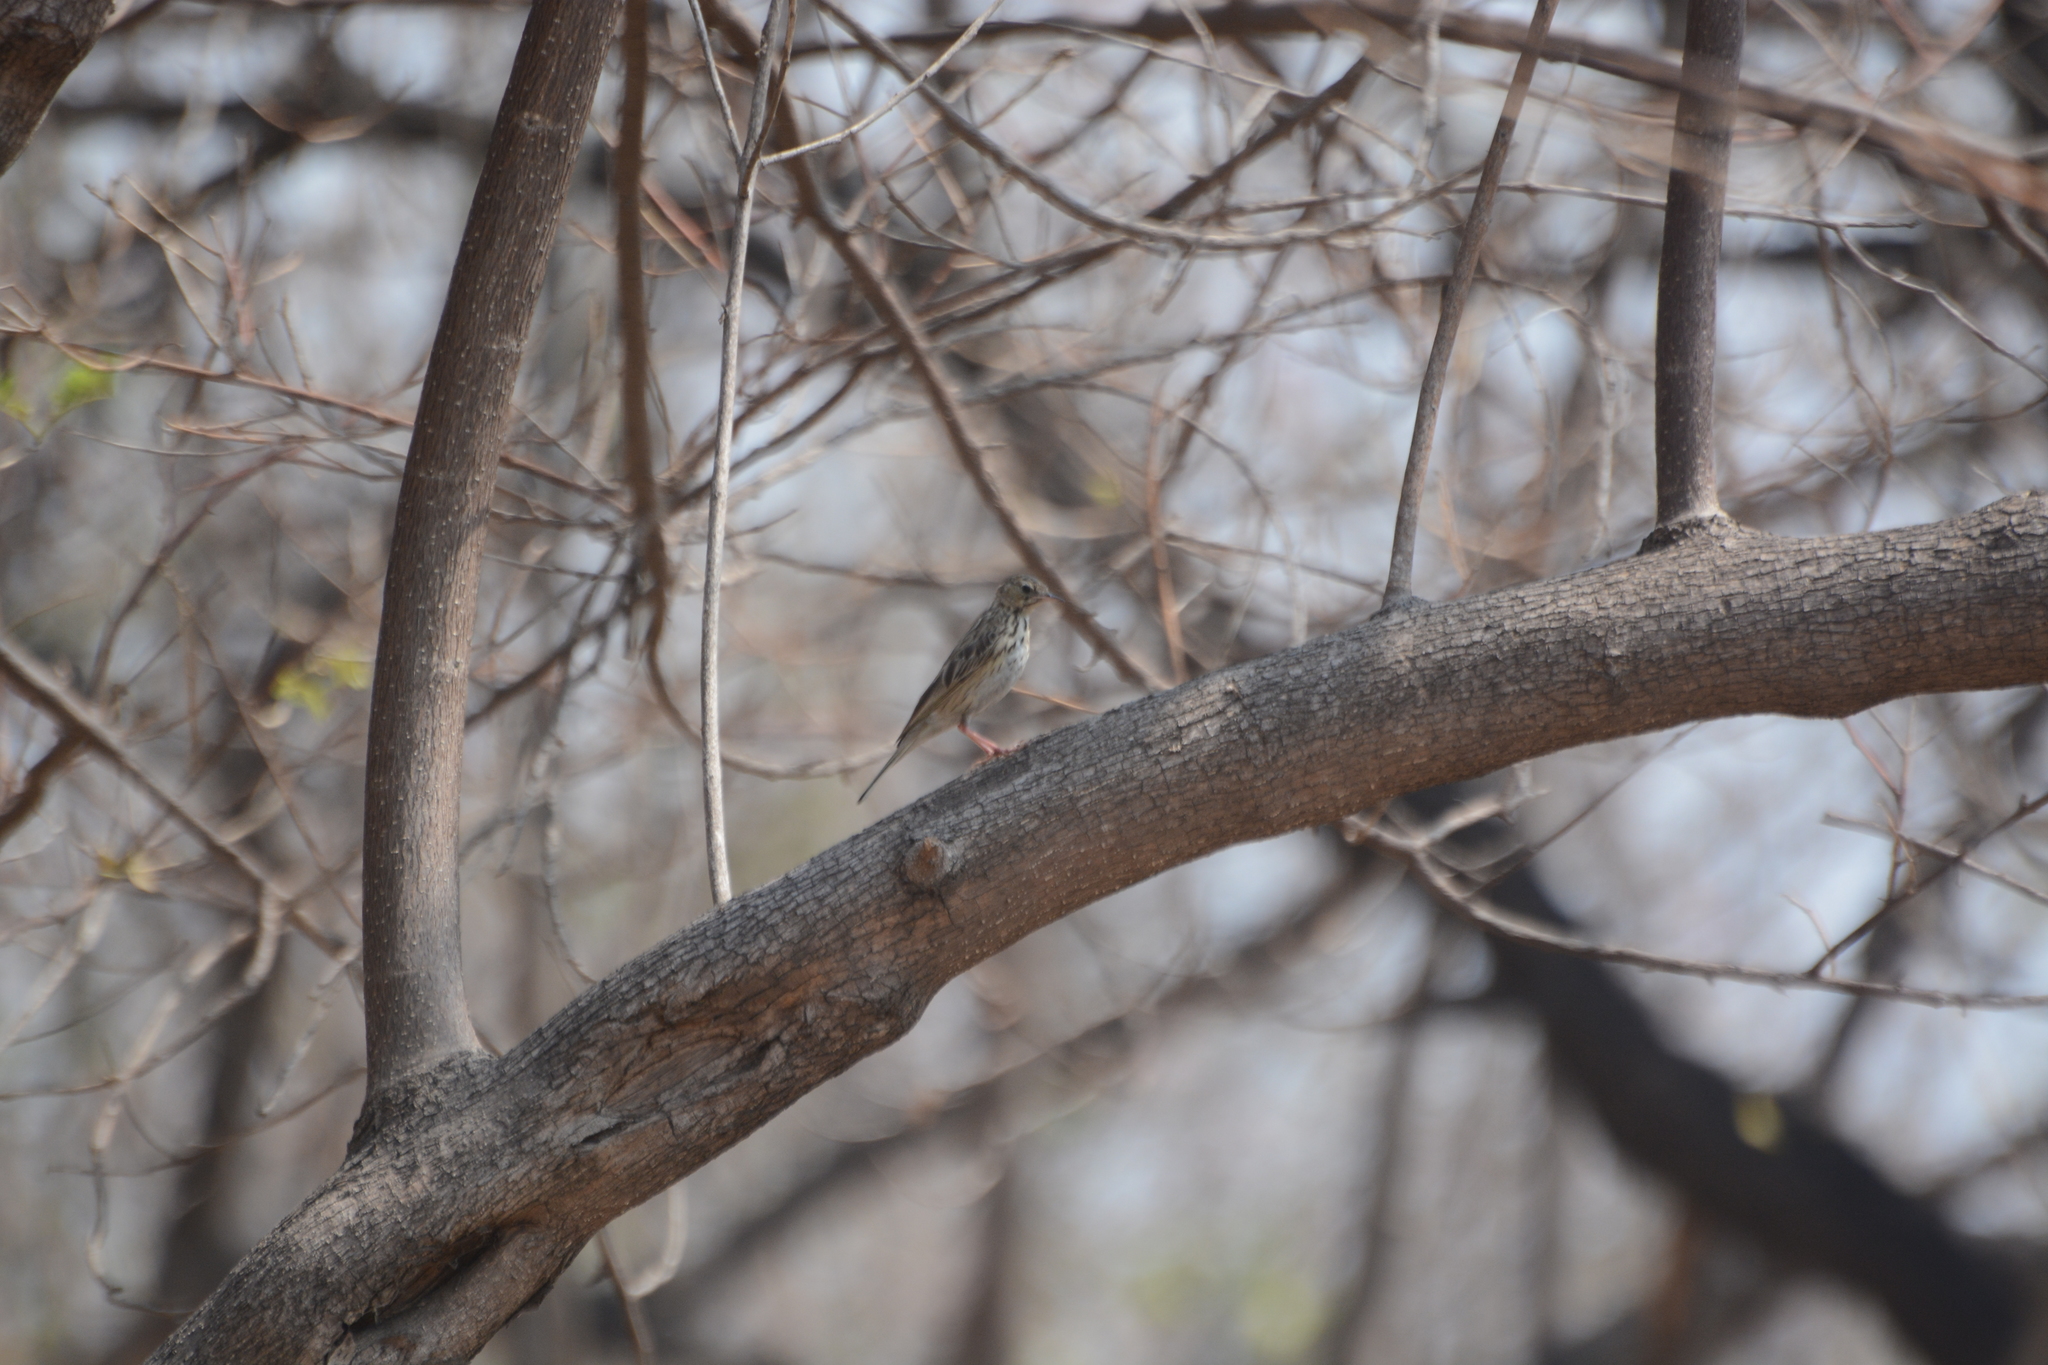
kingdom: Animalia
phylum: Chordata
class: Aves
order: Passeriformes
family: Motacillidae
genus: Anthus
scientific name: Anthus trivialis
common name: Tree pipit
